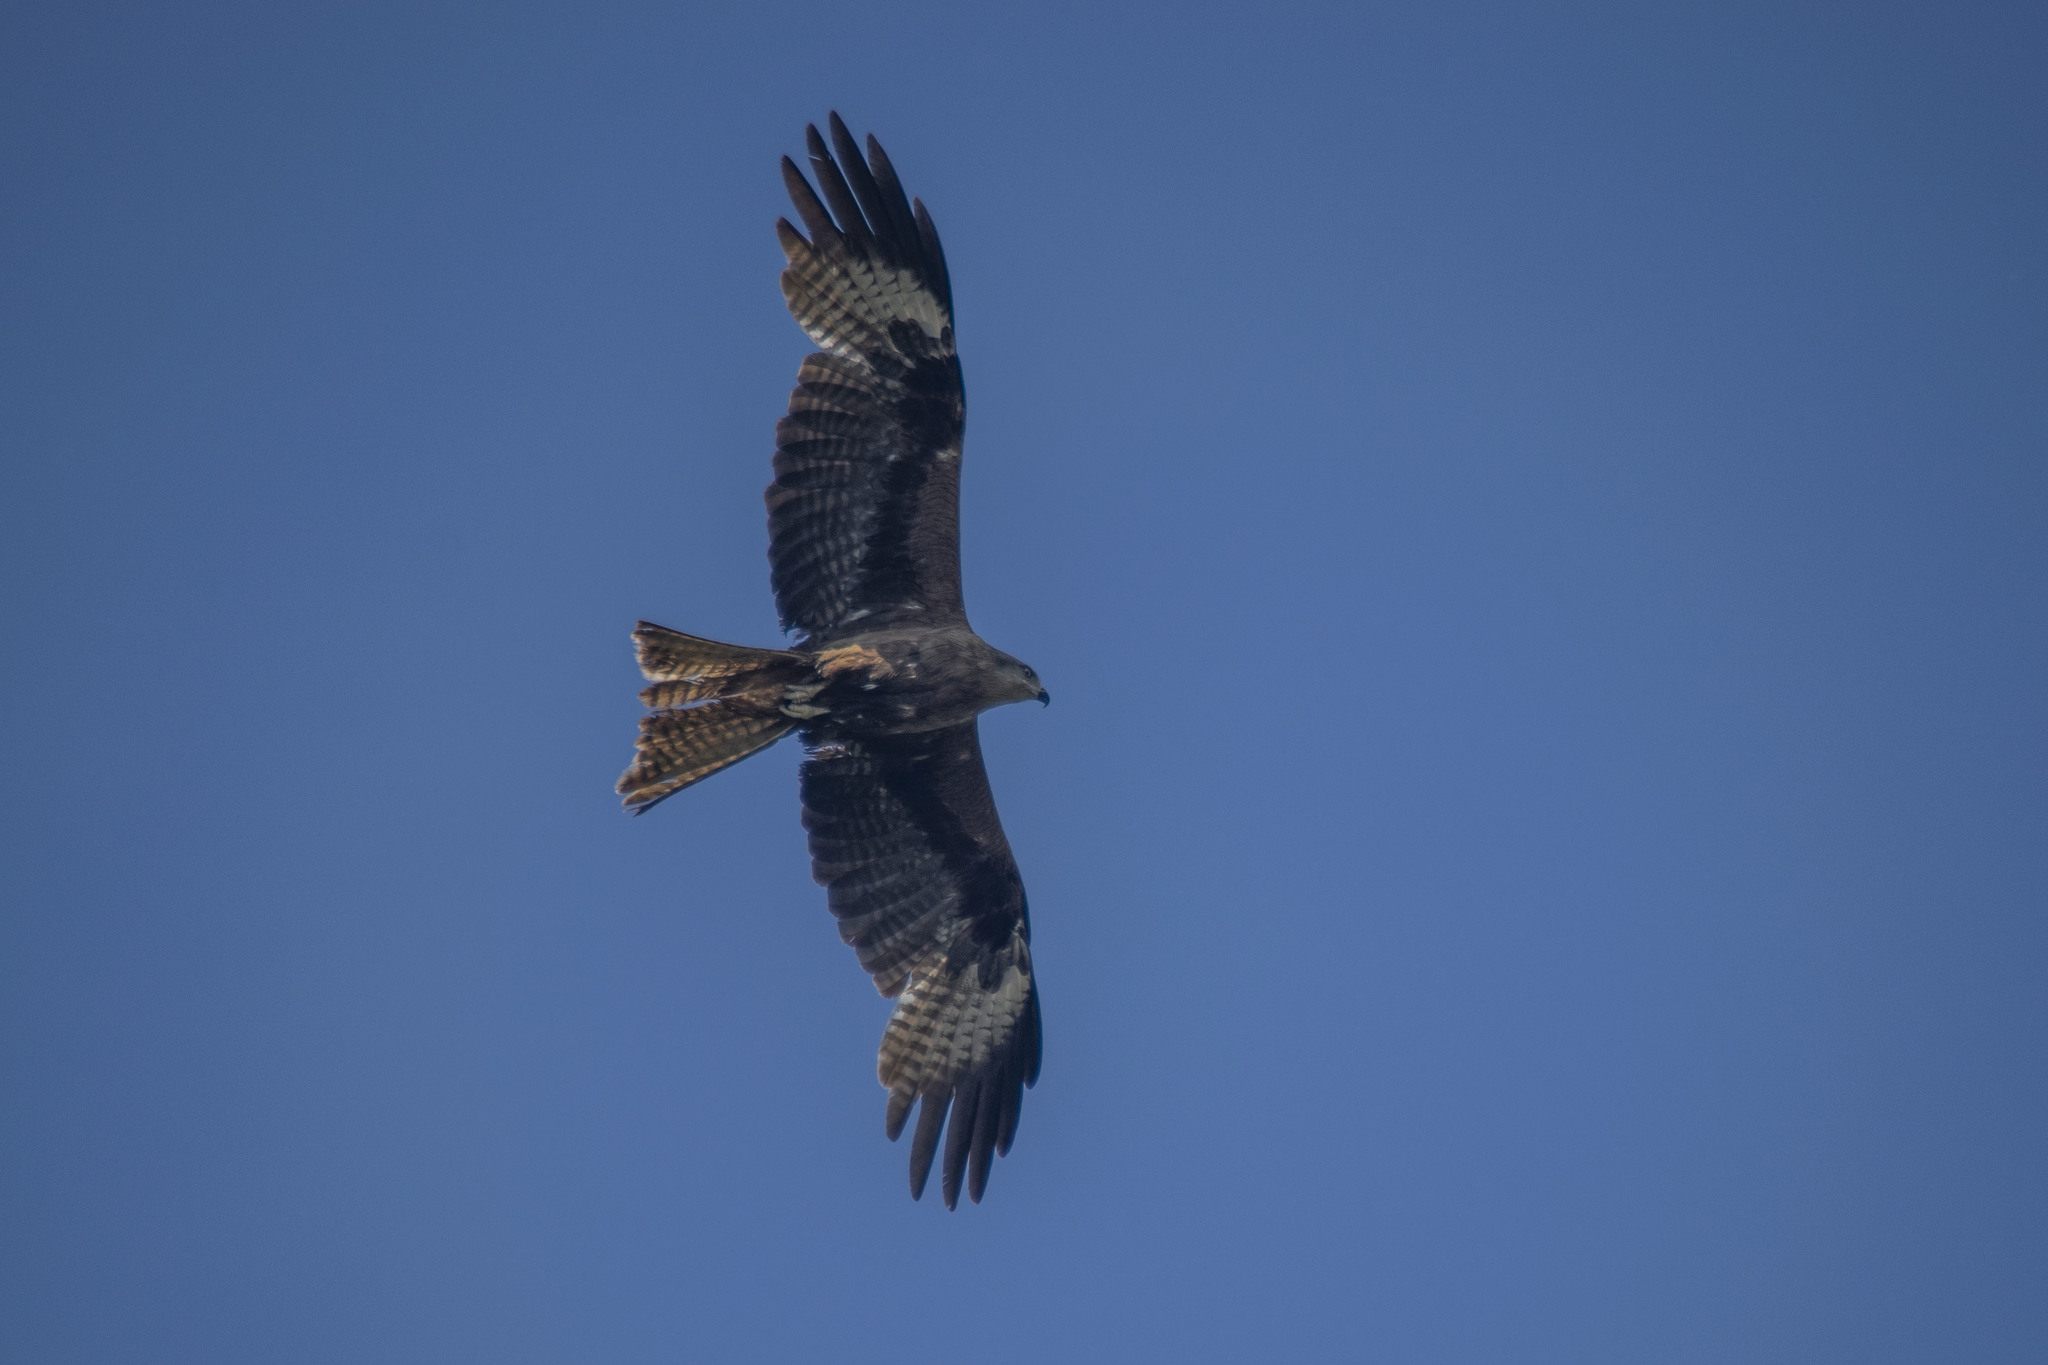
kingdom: Animalia
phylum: Chordata
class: Aves
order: Accipitriformes
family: Accipitridae
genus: Milvus
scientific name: Milvus migrans
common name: Black kite
